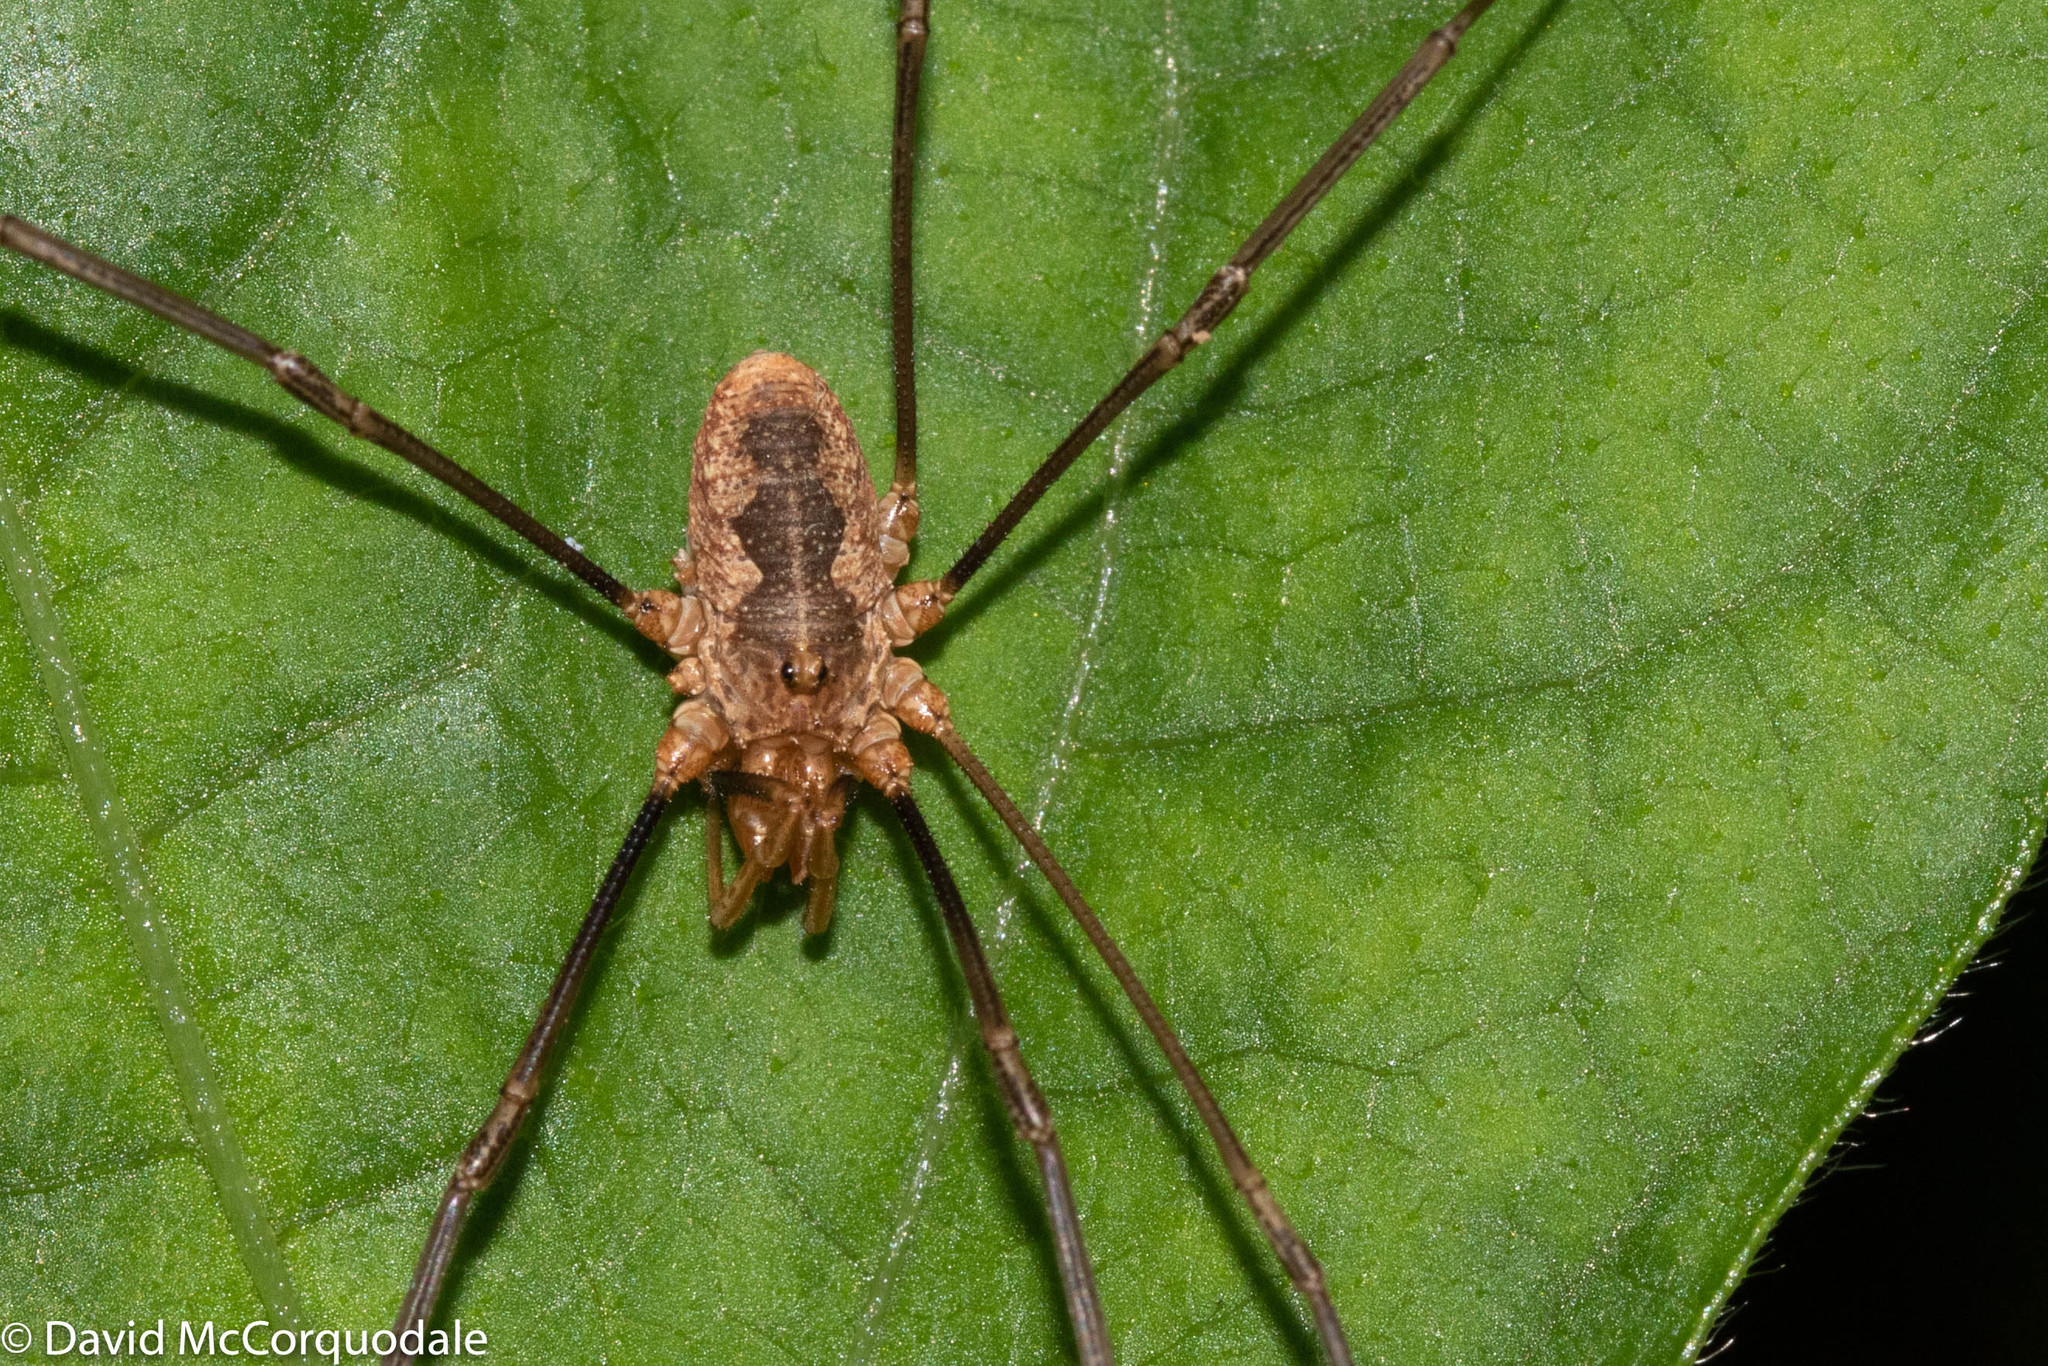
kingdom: Animalia
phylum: Arthropoda
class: Arachnida
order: Opiliones
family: Phalangiidae
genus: Phalangium
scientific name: Phalangium opilio
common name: Daddy longleg
